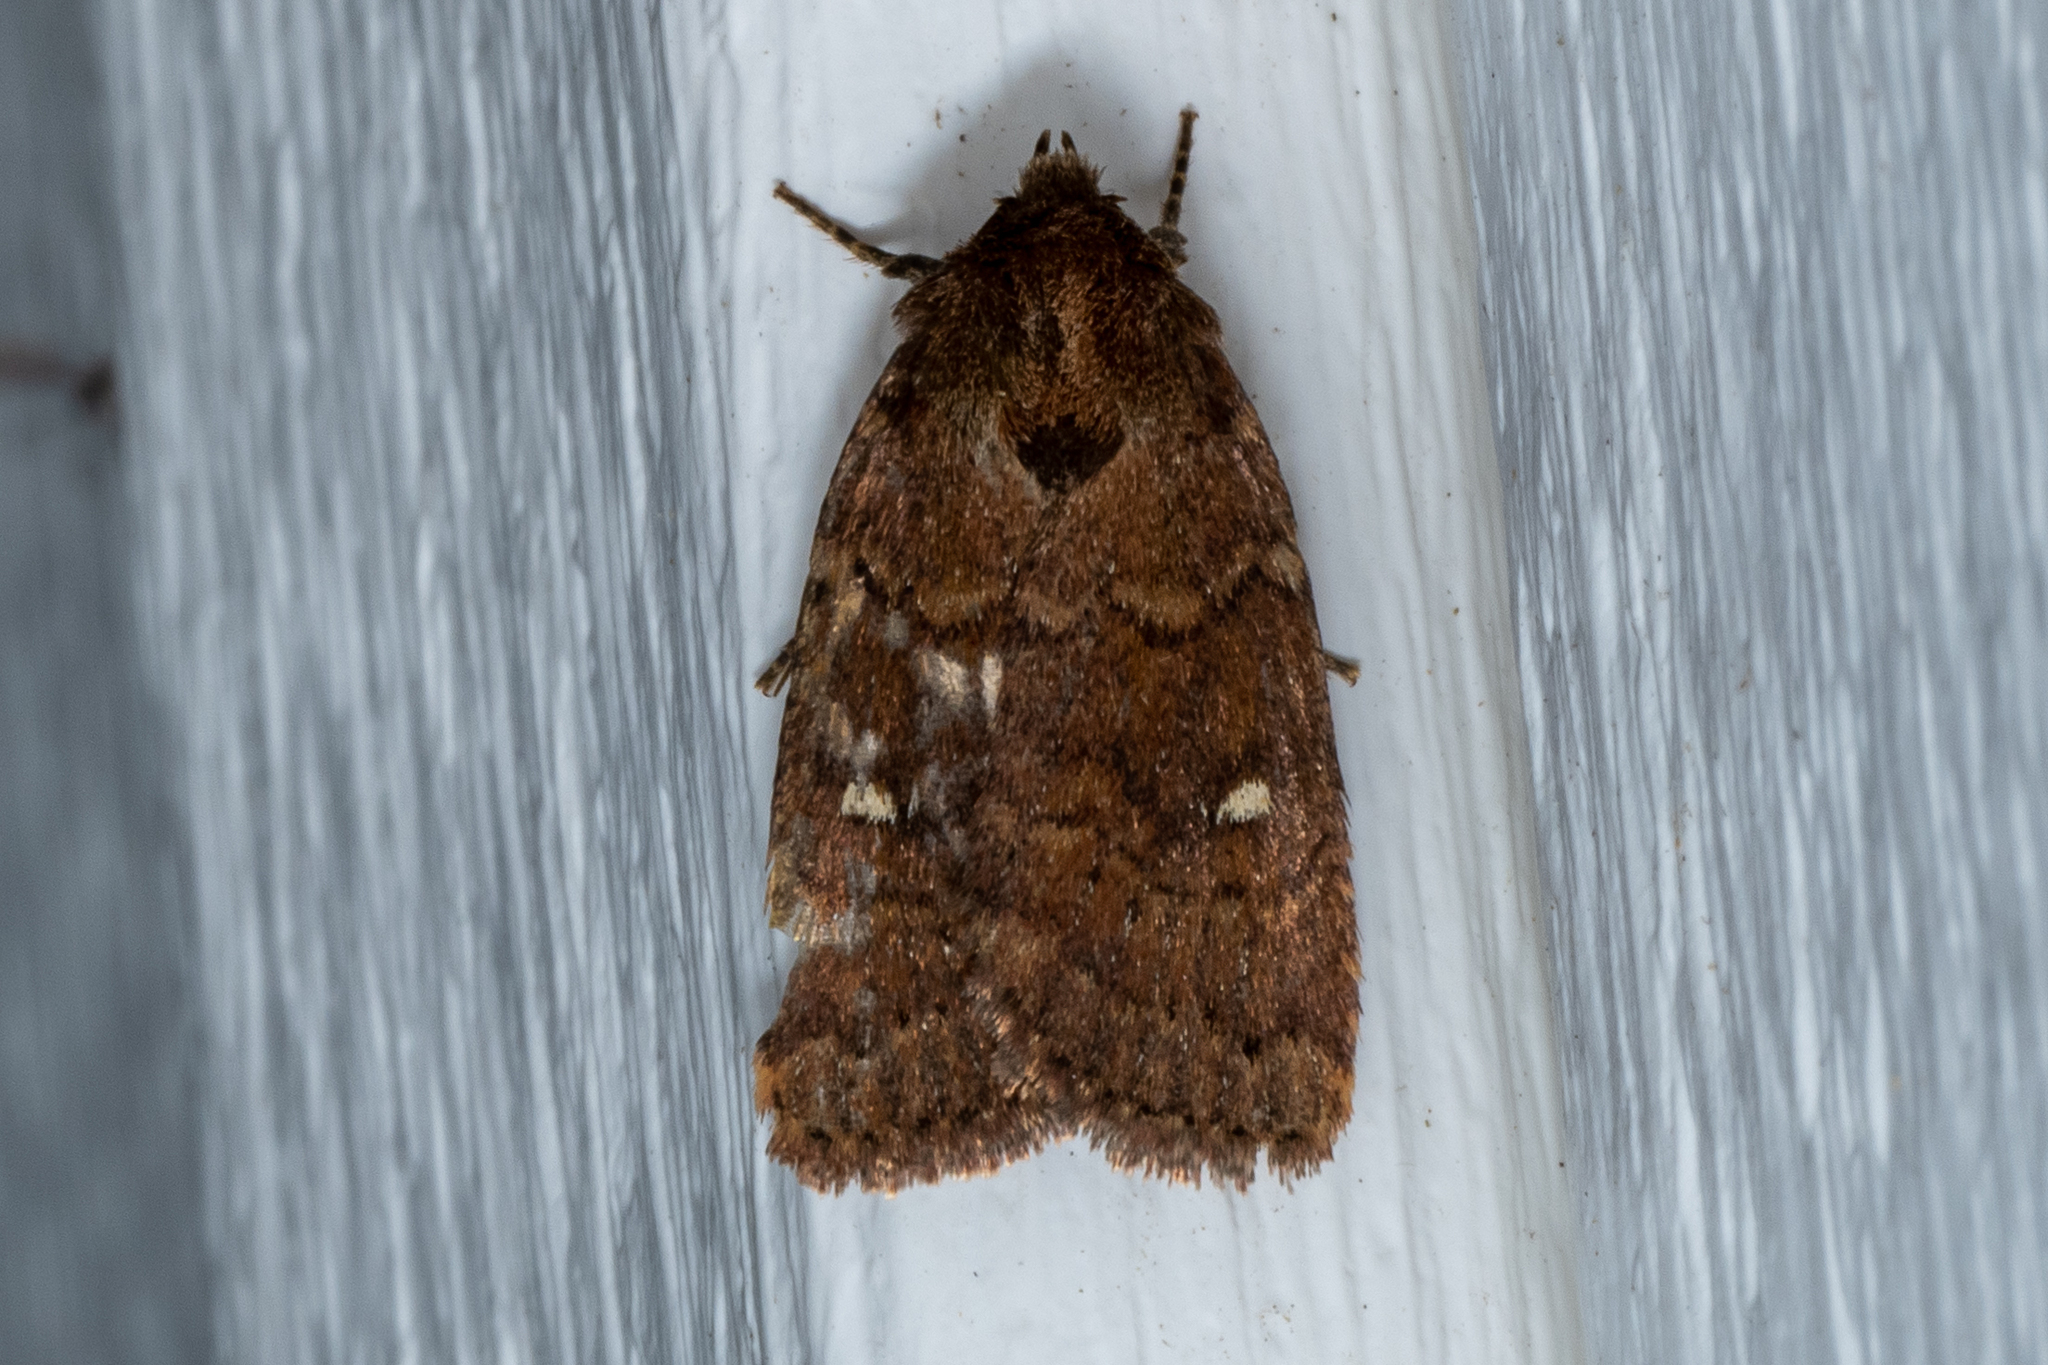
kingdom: Animalia
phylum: Arthropoda
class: Insecta
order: Lepidoptera
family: Noctuidae
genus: Pseudorthodes
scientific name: Pseudorthodes vecors
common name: Small brown quaker
